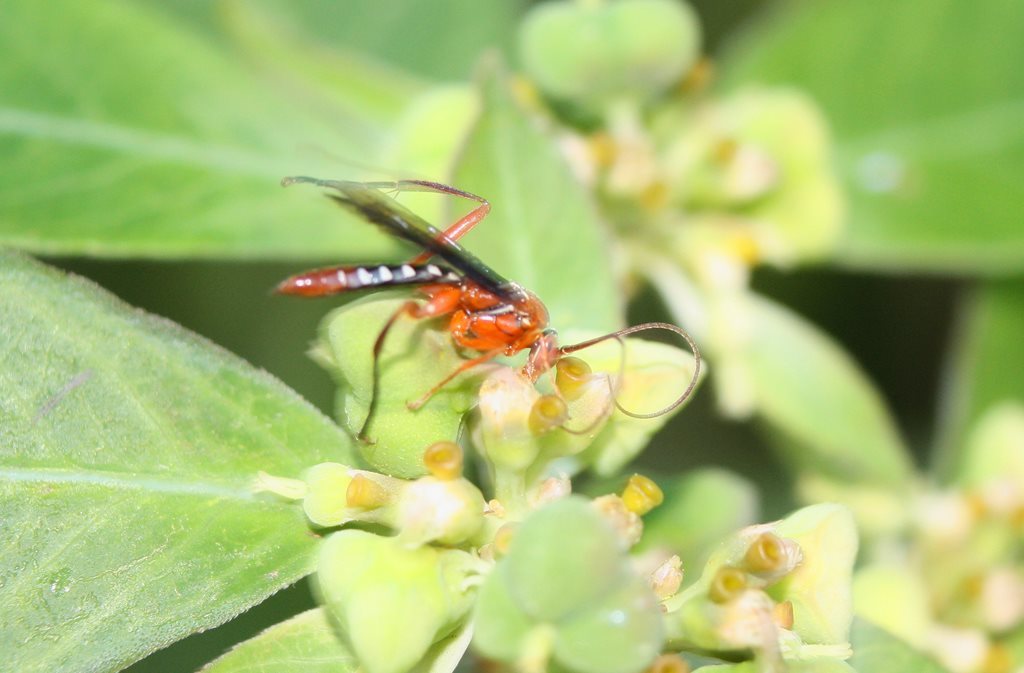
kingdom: Animalia
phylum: Arthropoda
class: Insecta
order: Hymenoptera
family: Ichneumonidae
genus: Lissopimpla
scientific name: Lissopimpla excelsa
